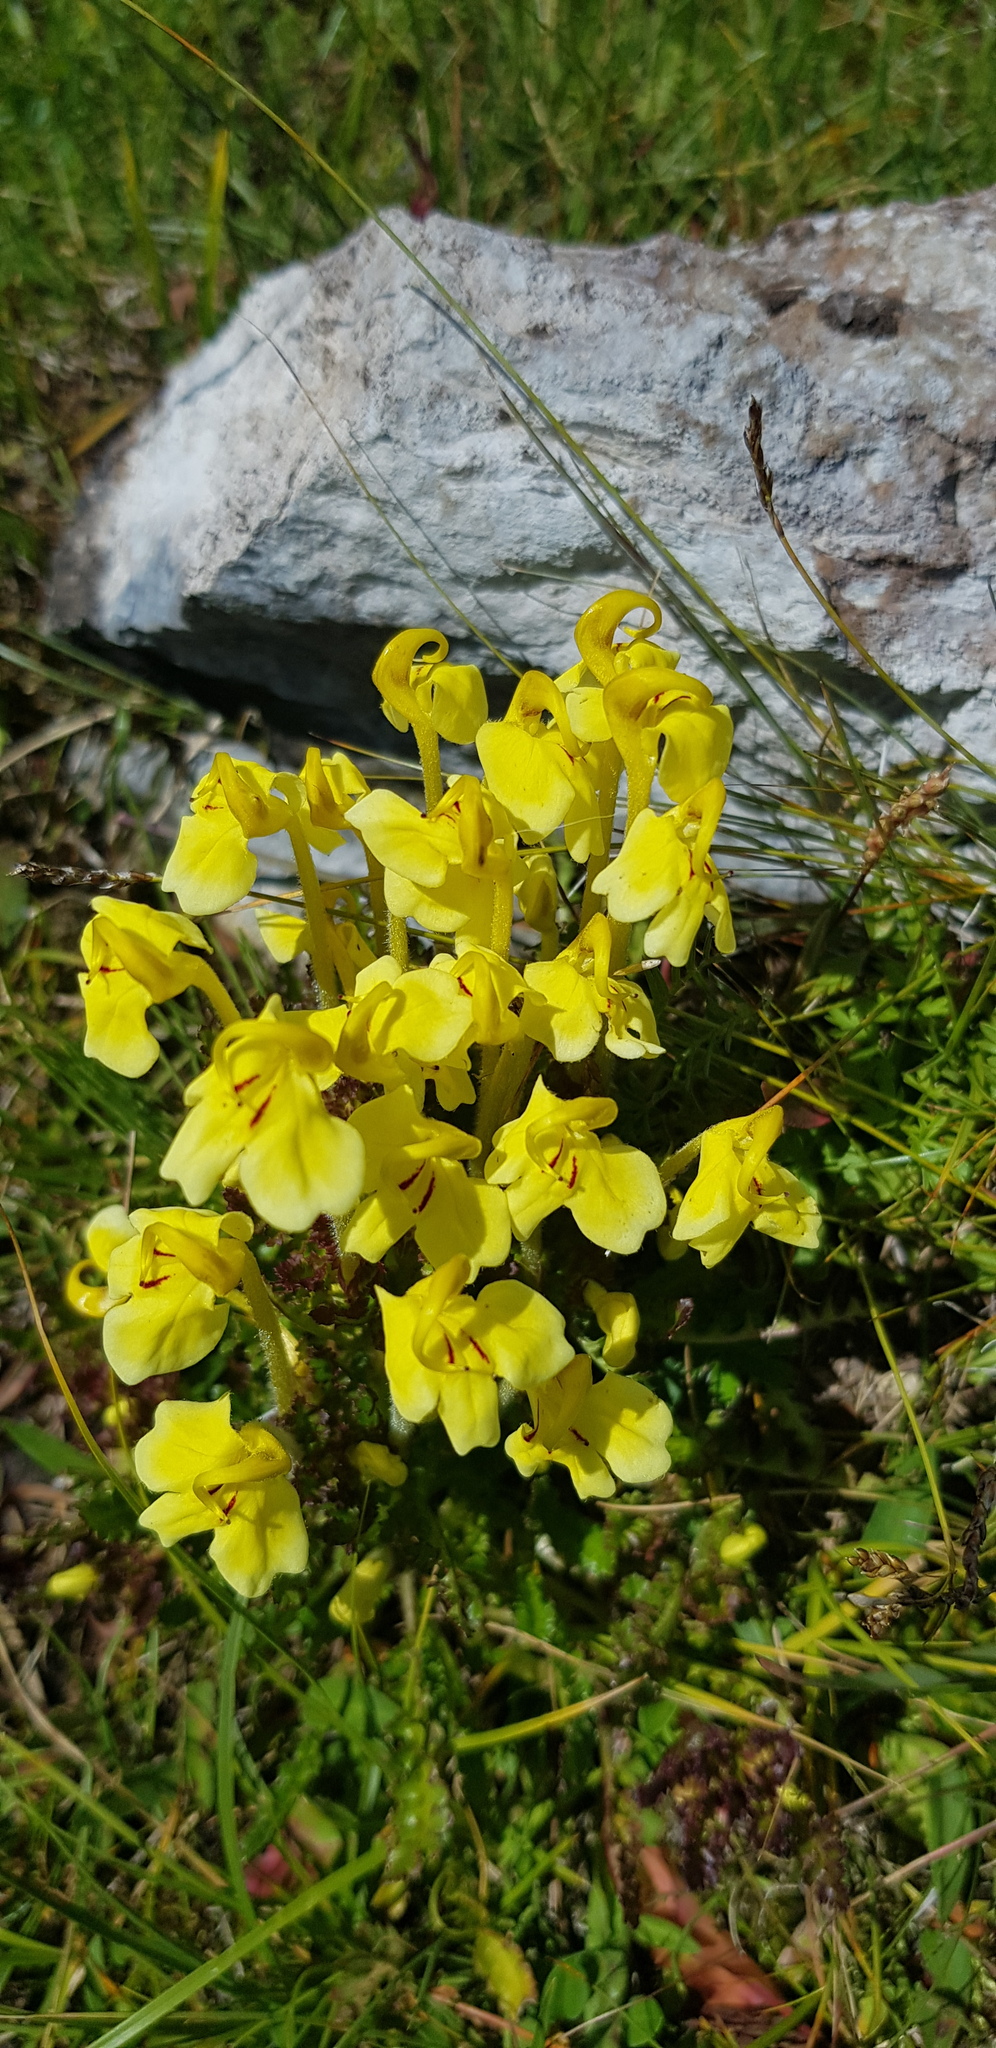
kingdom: Plantae
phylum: Tracheophyta
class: Magnoliopsida
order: Lamiales
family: Orobanchaceae
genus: Pedicularis
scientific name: Pedicularis longiflora
